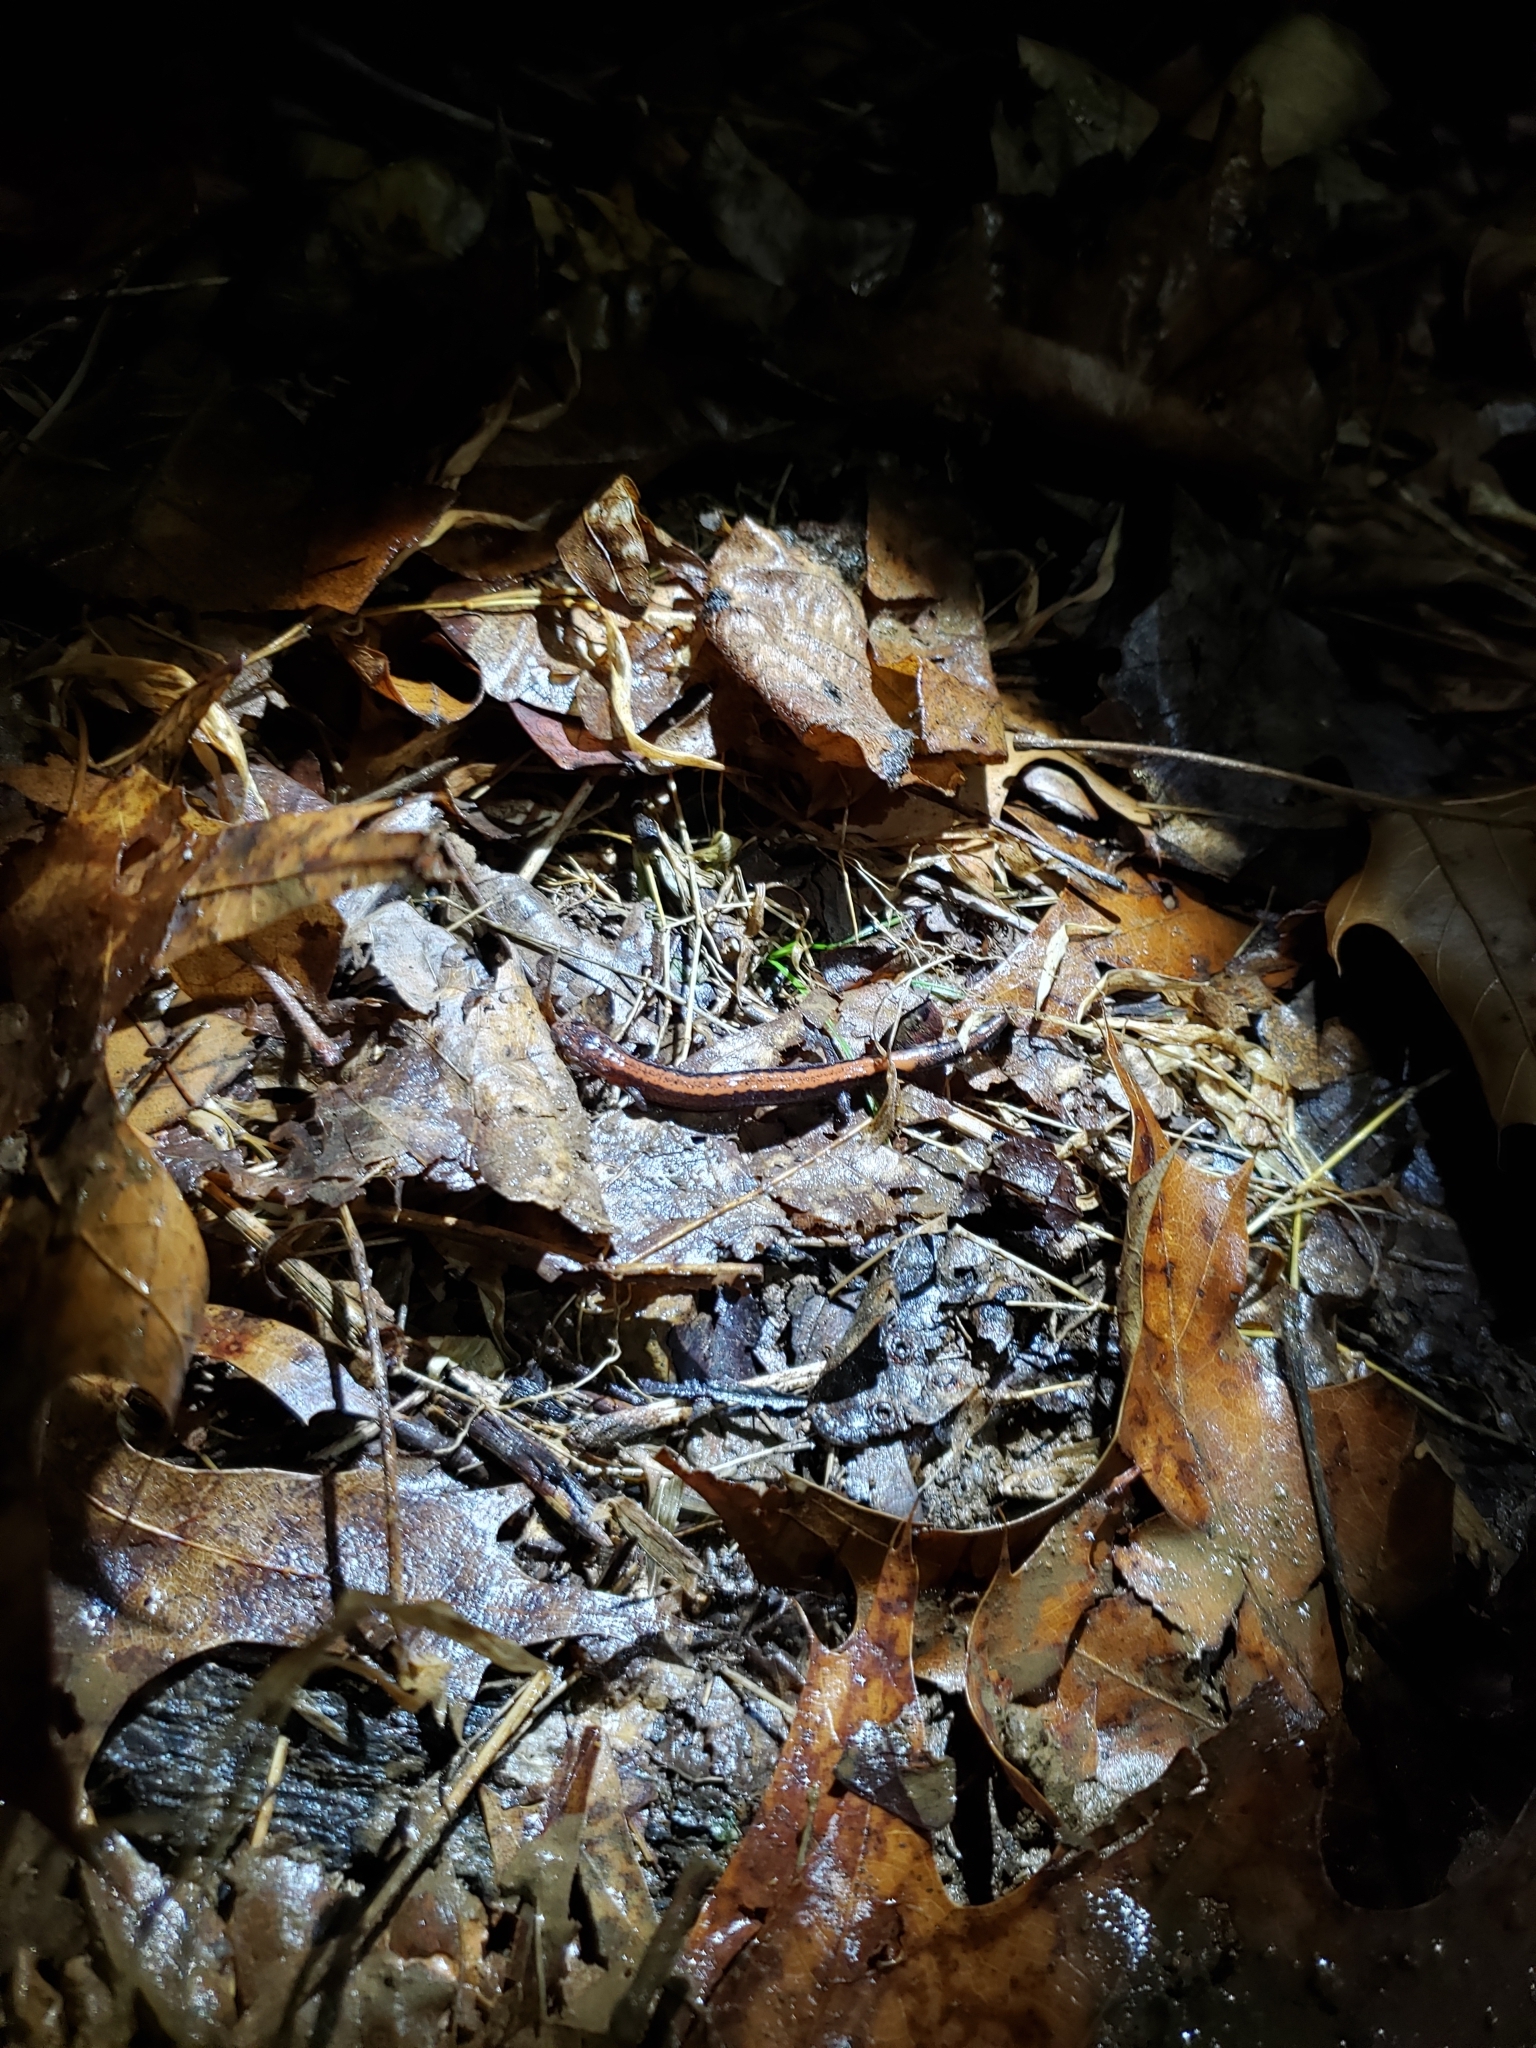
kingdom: Animalia
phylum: Chordata
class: Amphibia
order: Caudata
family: Plethodontidae
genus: Plethodon
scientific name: Plethodon cinereus
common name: Redback salamander
